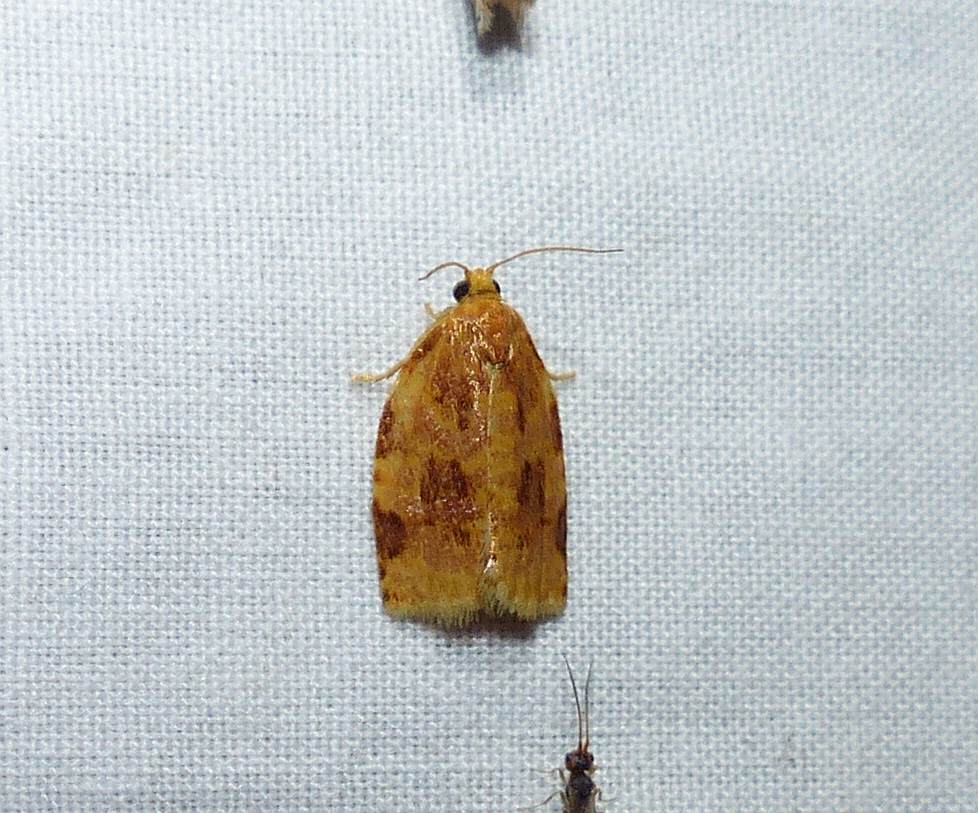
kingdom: Animalia
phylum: Arthropoda
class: Insecta
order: Lepidoptera
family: Tortricidae
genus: Archips
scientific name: Archips cerasivorana
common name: Uglynest caterpillar
